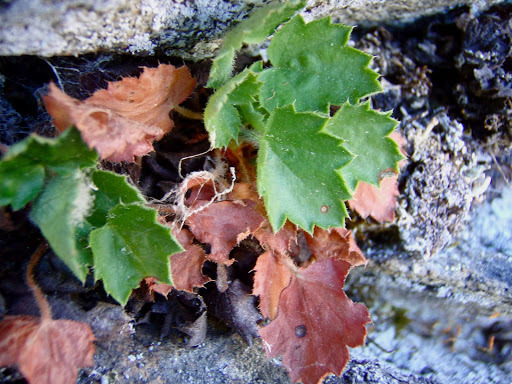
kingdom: Plantae
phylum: Tracheophyta
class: Magnoliopsida
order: Saxifragales
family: Saxifragaceae
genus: Heuchera
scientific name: Heuchera rubescens
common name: Jack-o'the-rocks
